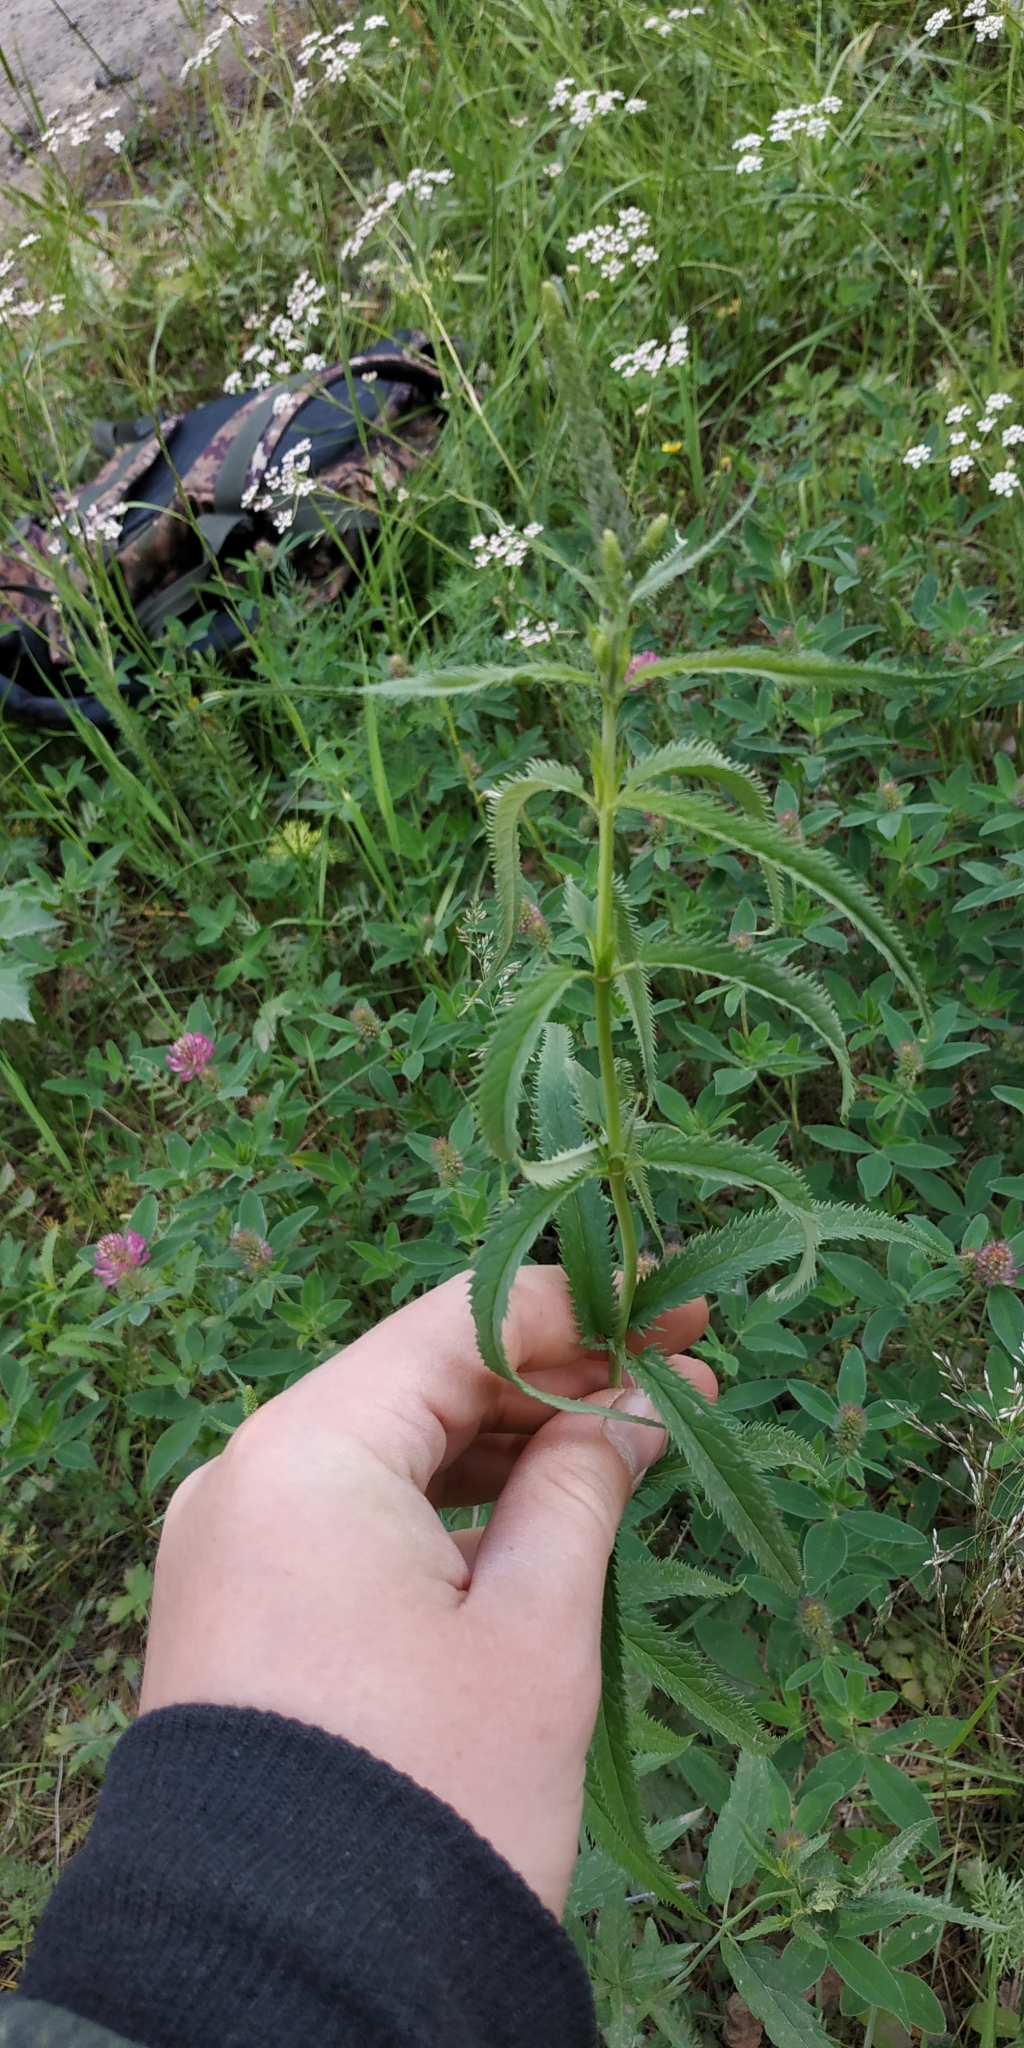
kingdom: Plantae
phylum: Tracheophyta
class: Magnoliopsida
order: Lamiales
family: Plantaginaceae
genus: Veronica
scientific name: Veronica longifolia
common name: Garden speedwell
